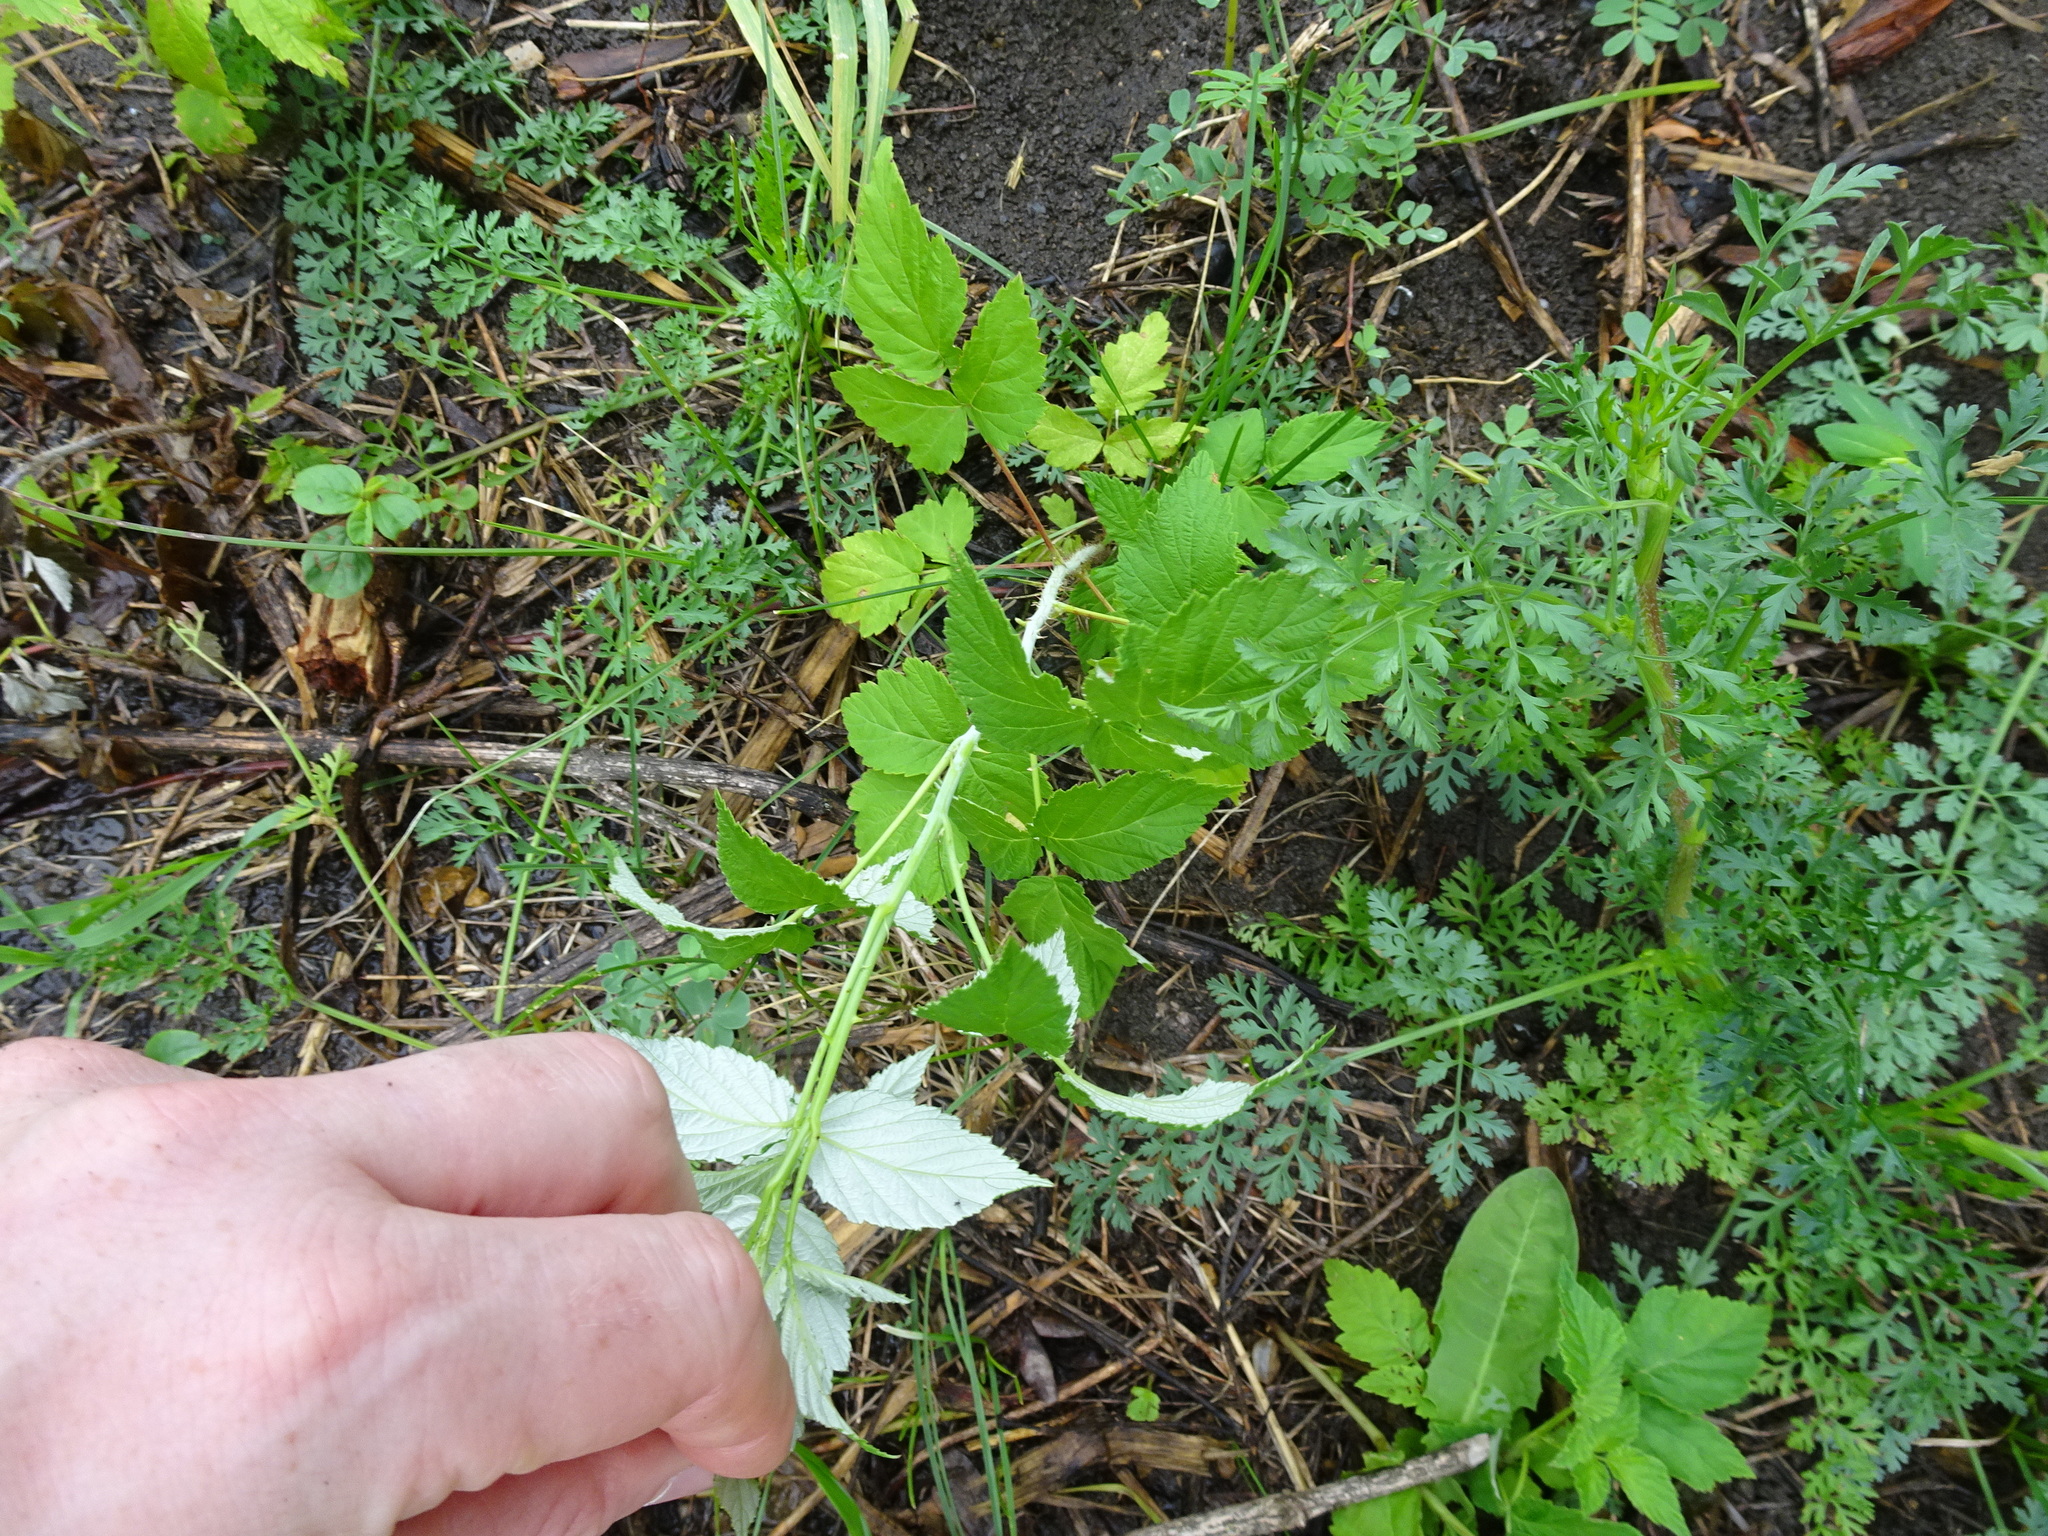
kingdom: Plantae
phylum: Tracheophyta
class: Magnoliopsida
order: Rosales
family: Rosaceae
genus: Rubus
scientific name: Rubus occidentalis
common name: Black raspberry
